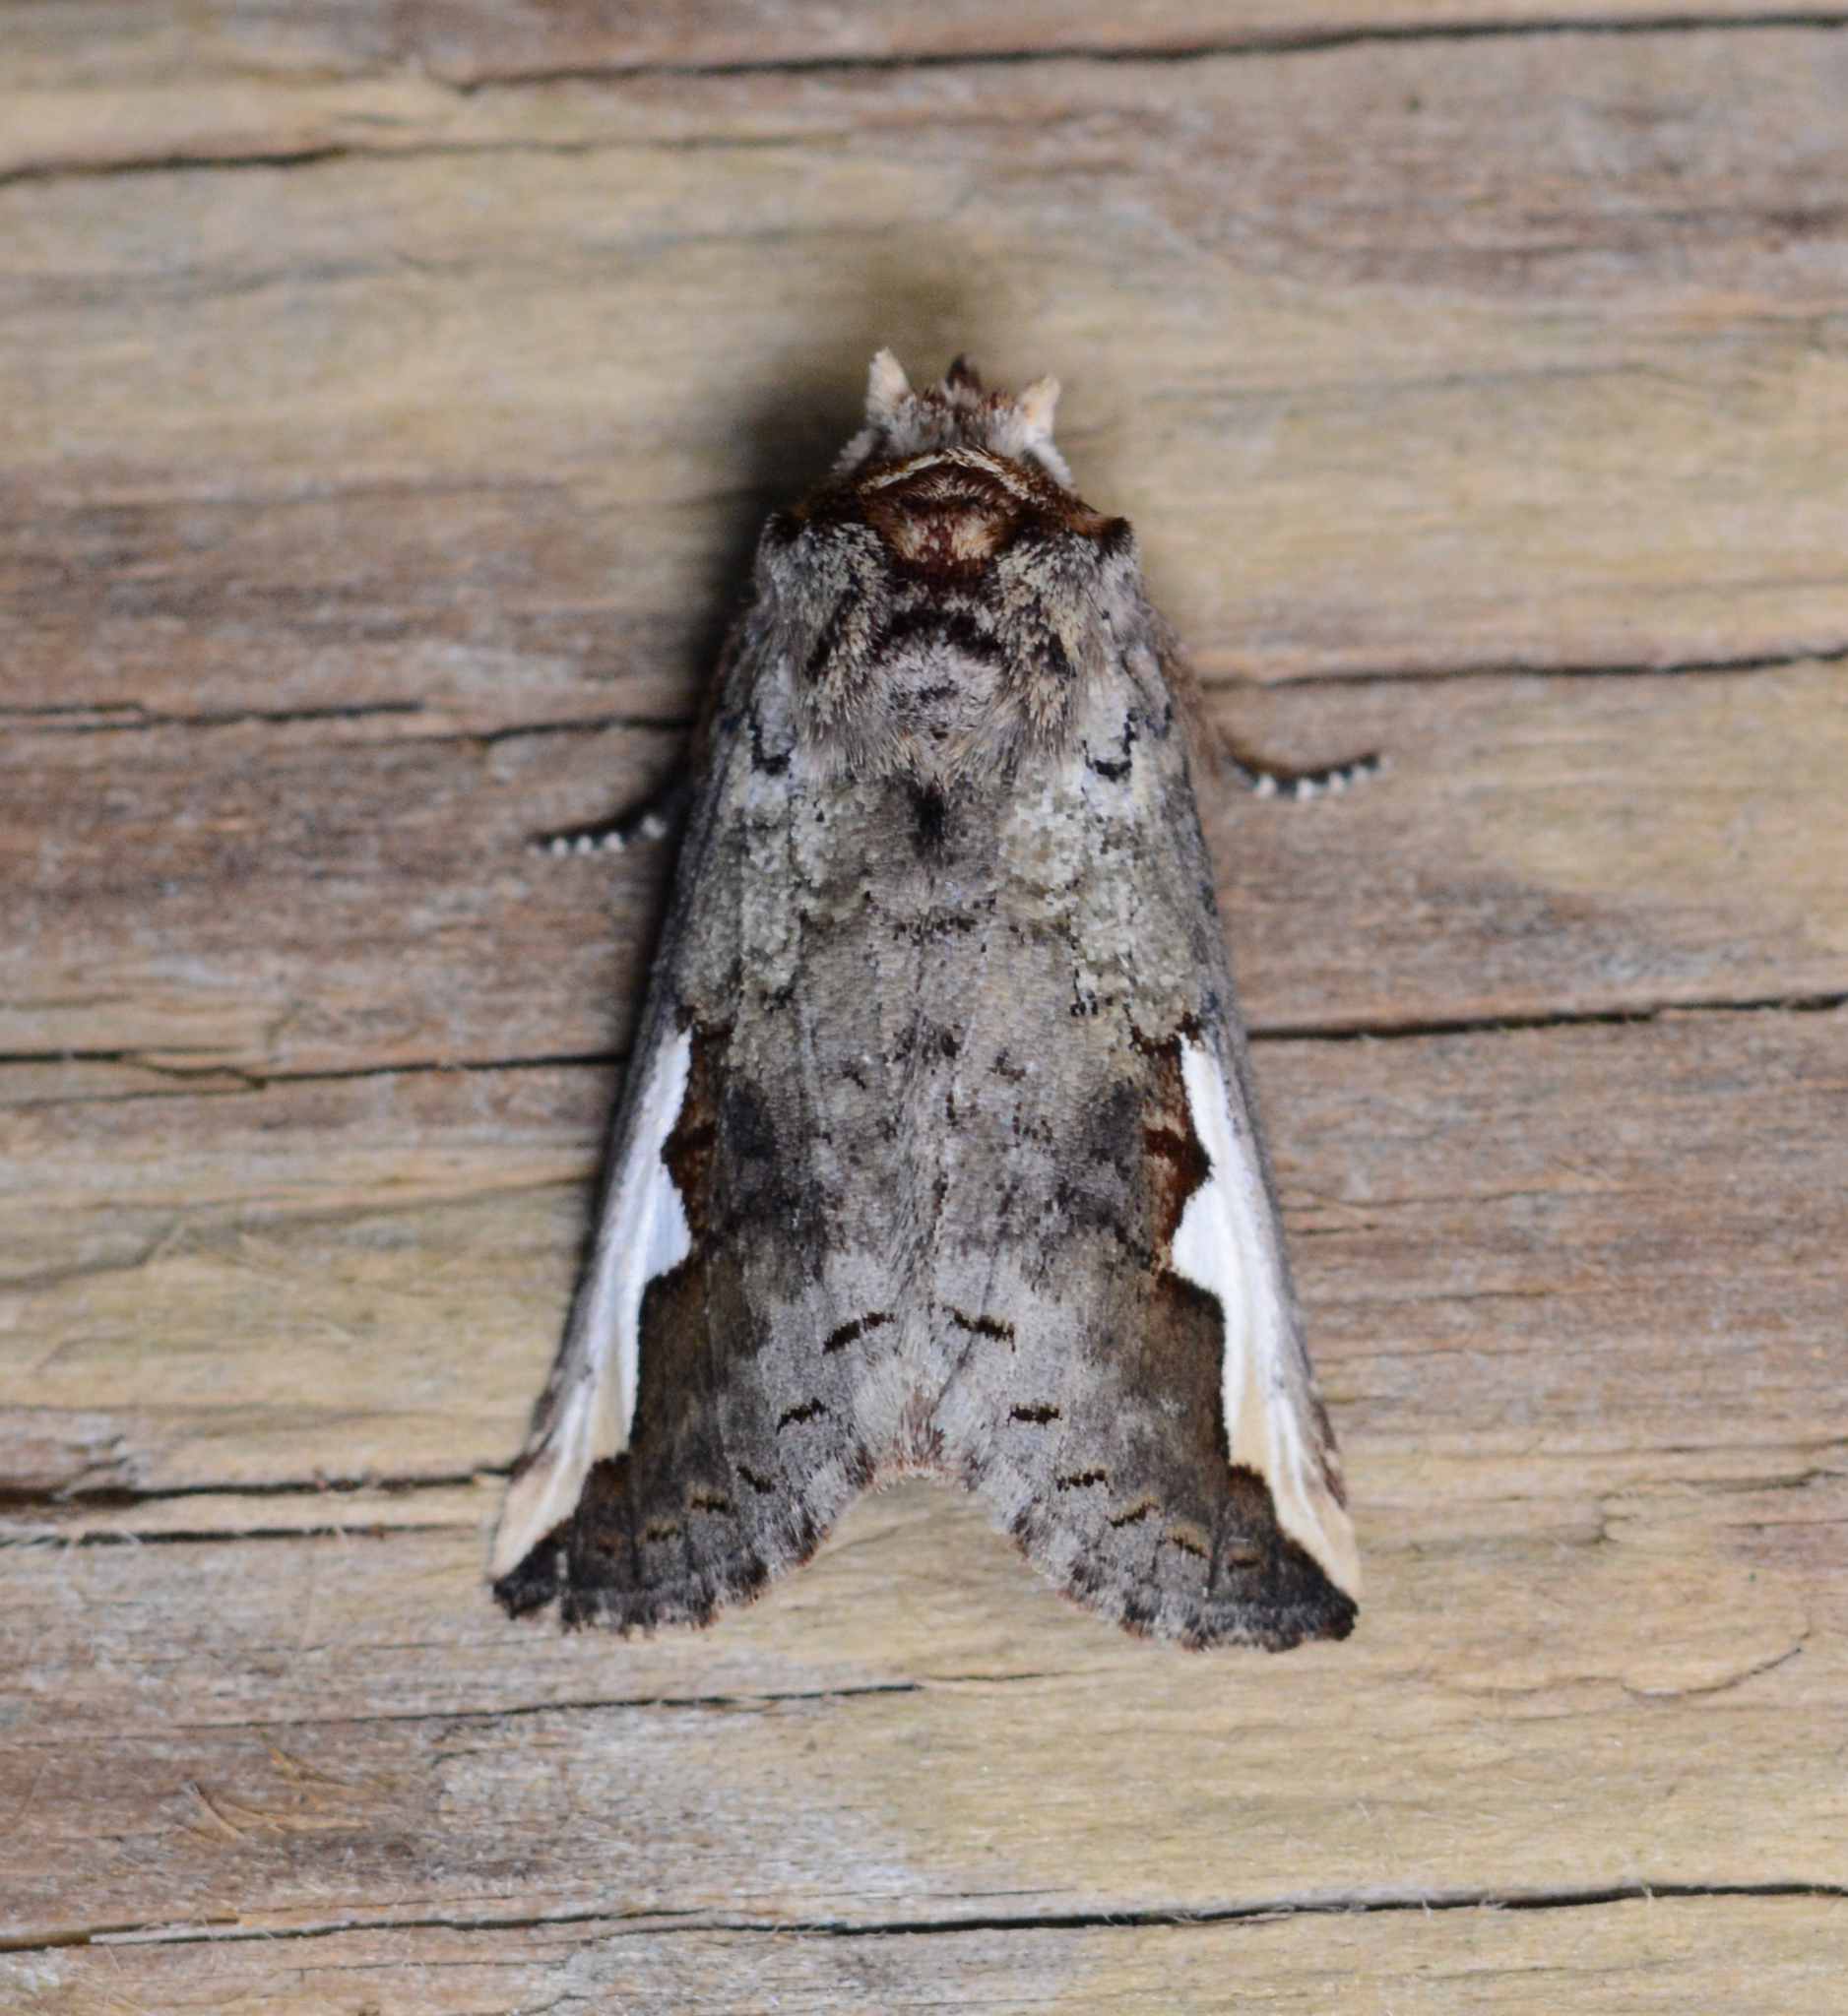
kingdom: Animalia
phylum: Arthropoda
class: Insecta
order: Lepidoptera
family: Notodontidae
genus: Symmerista
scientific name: Symmerista albifrons
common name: White-headed prominent
